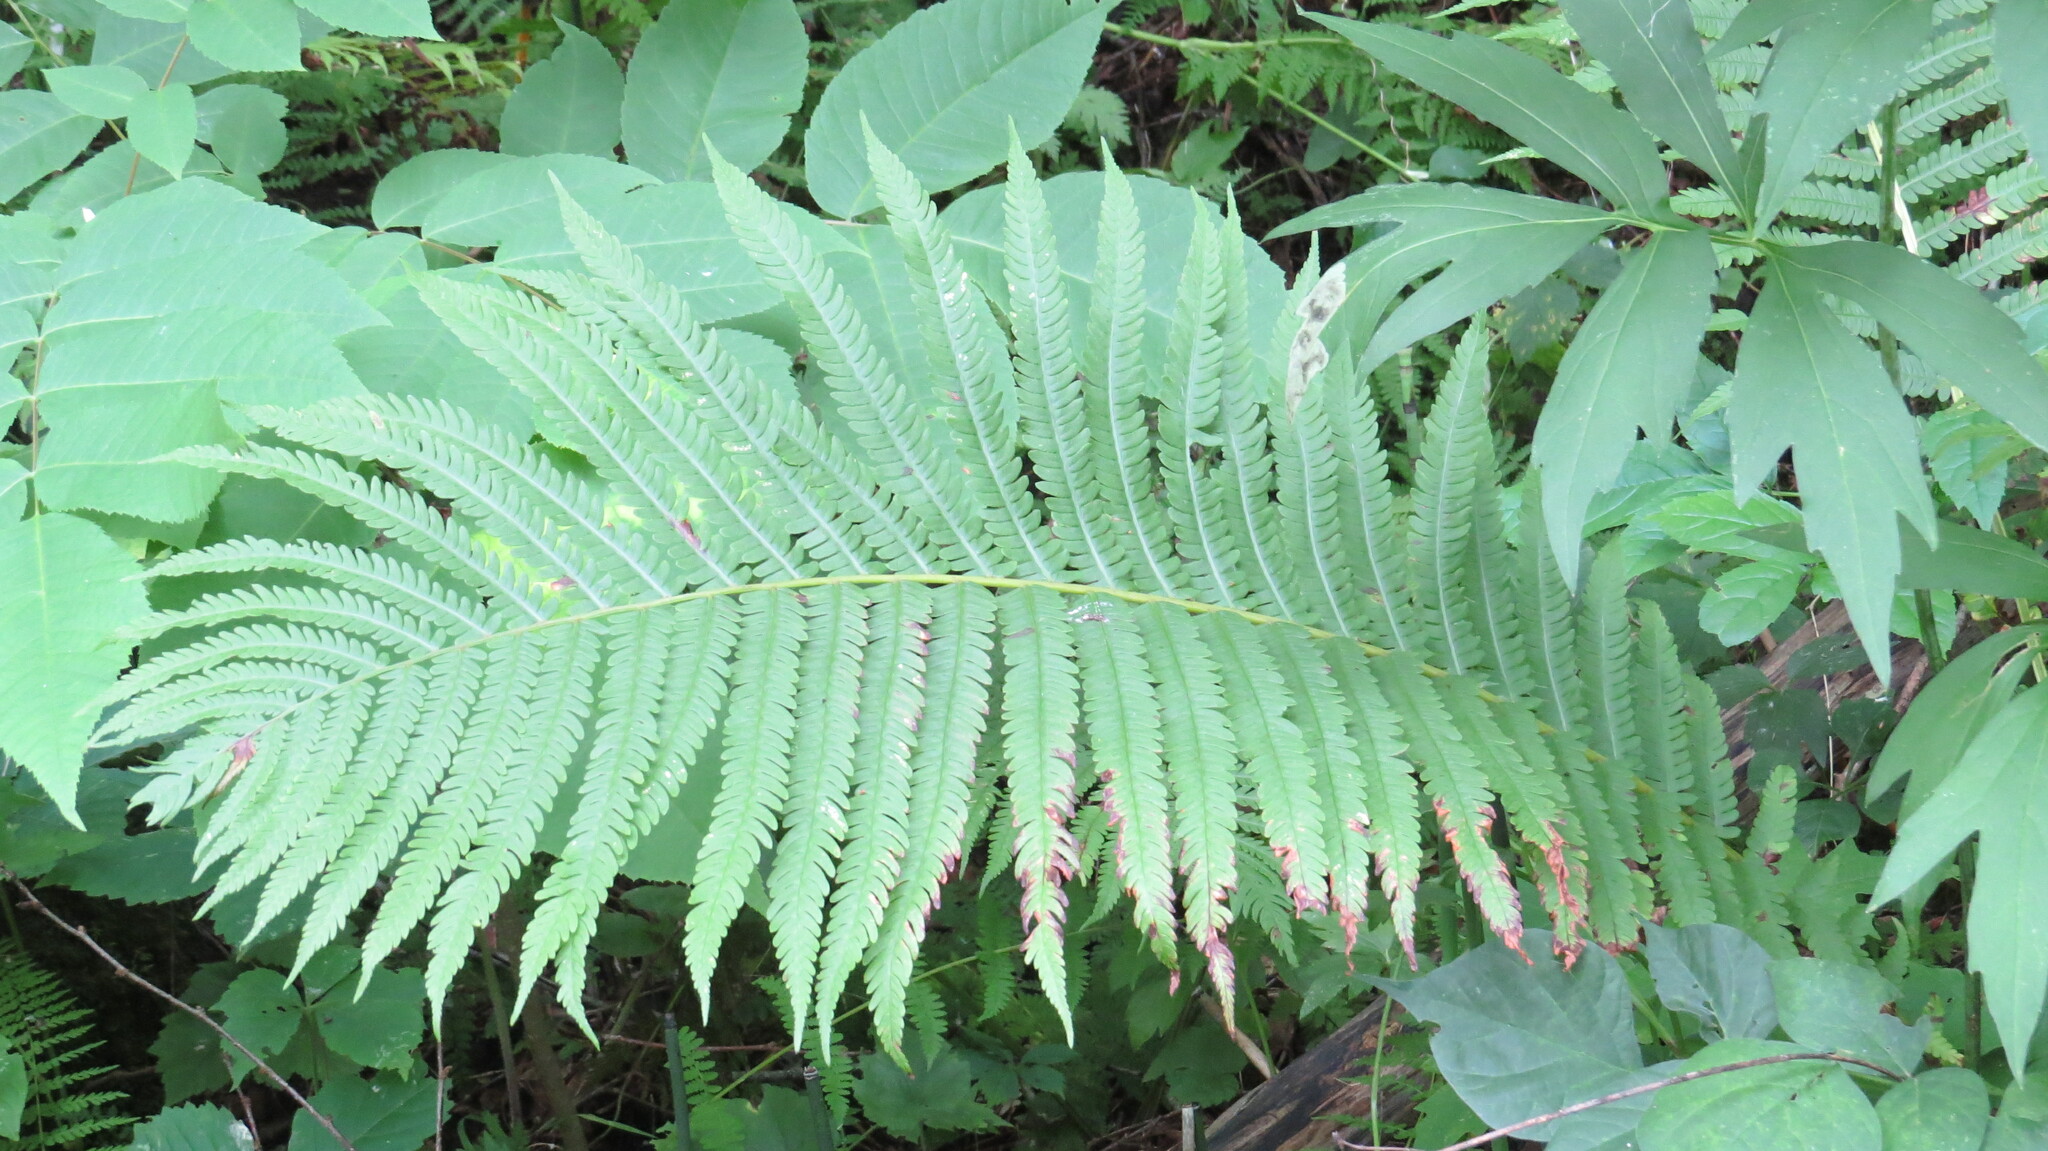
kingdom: Plantae
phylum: Tracheophyta
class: Polypodiopsida
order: Polypodiales
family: Onocleaceae
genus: Matteuccia
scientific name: Matteuccia struthiopteris
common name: Ostrich fern
